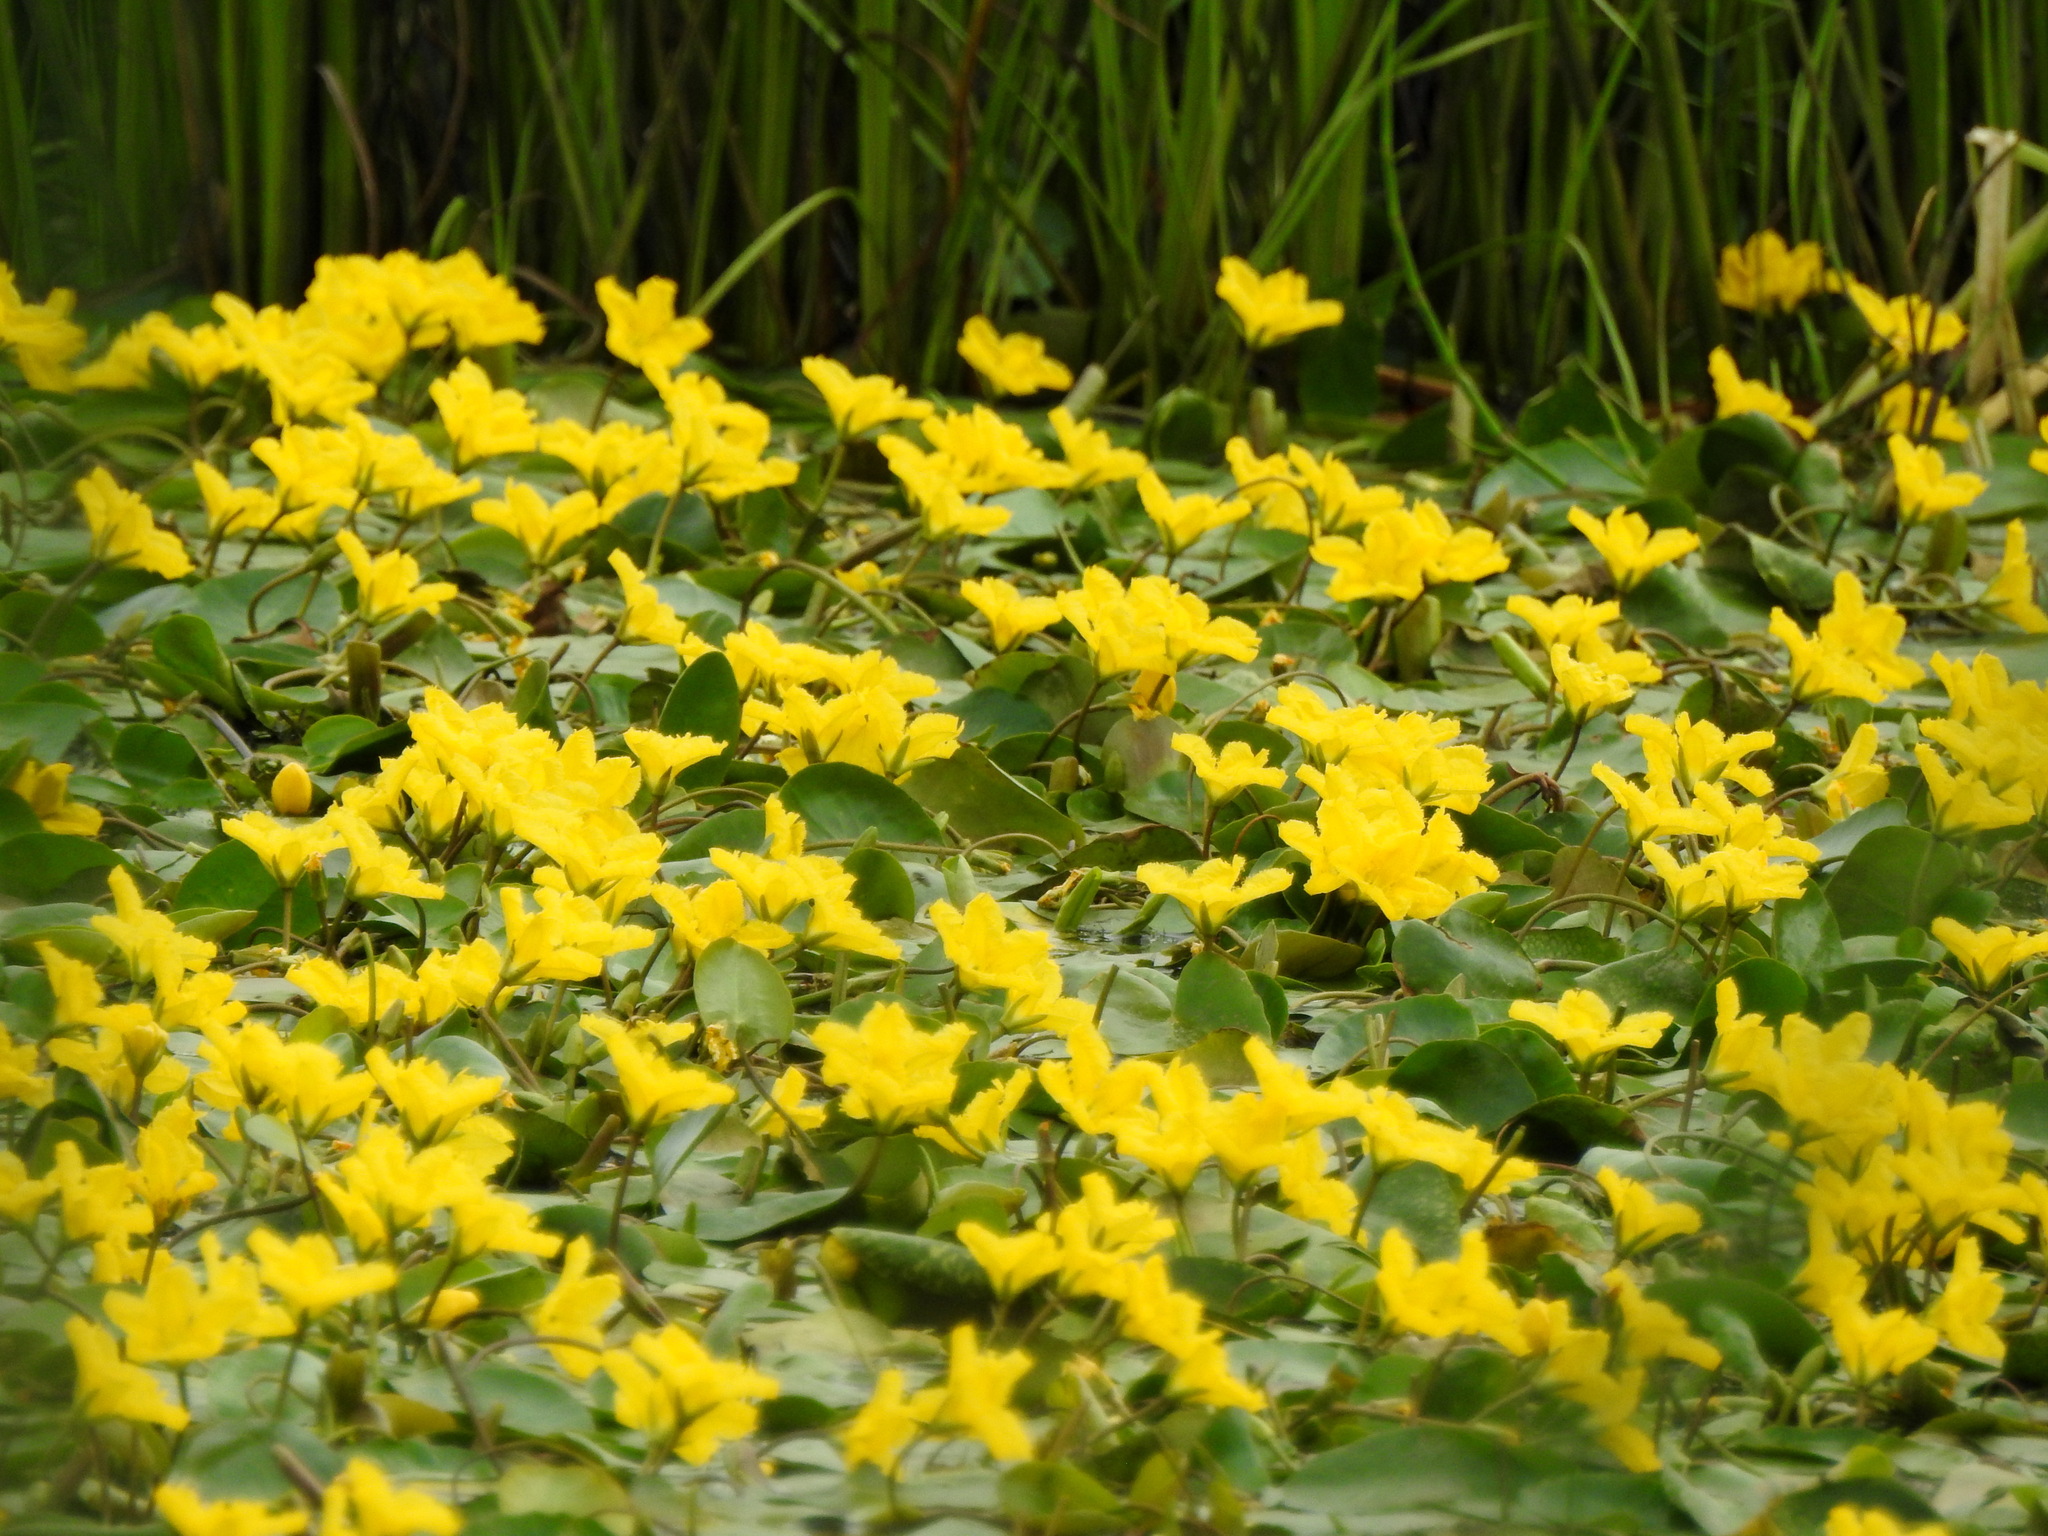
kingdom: Plantae
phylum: Tracheophyta
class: Magnoliopsida
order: Asterales
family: Menyanthaceae
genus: Nymphoides
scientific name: Nymphoides peltata
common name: Fringed water-lily
